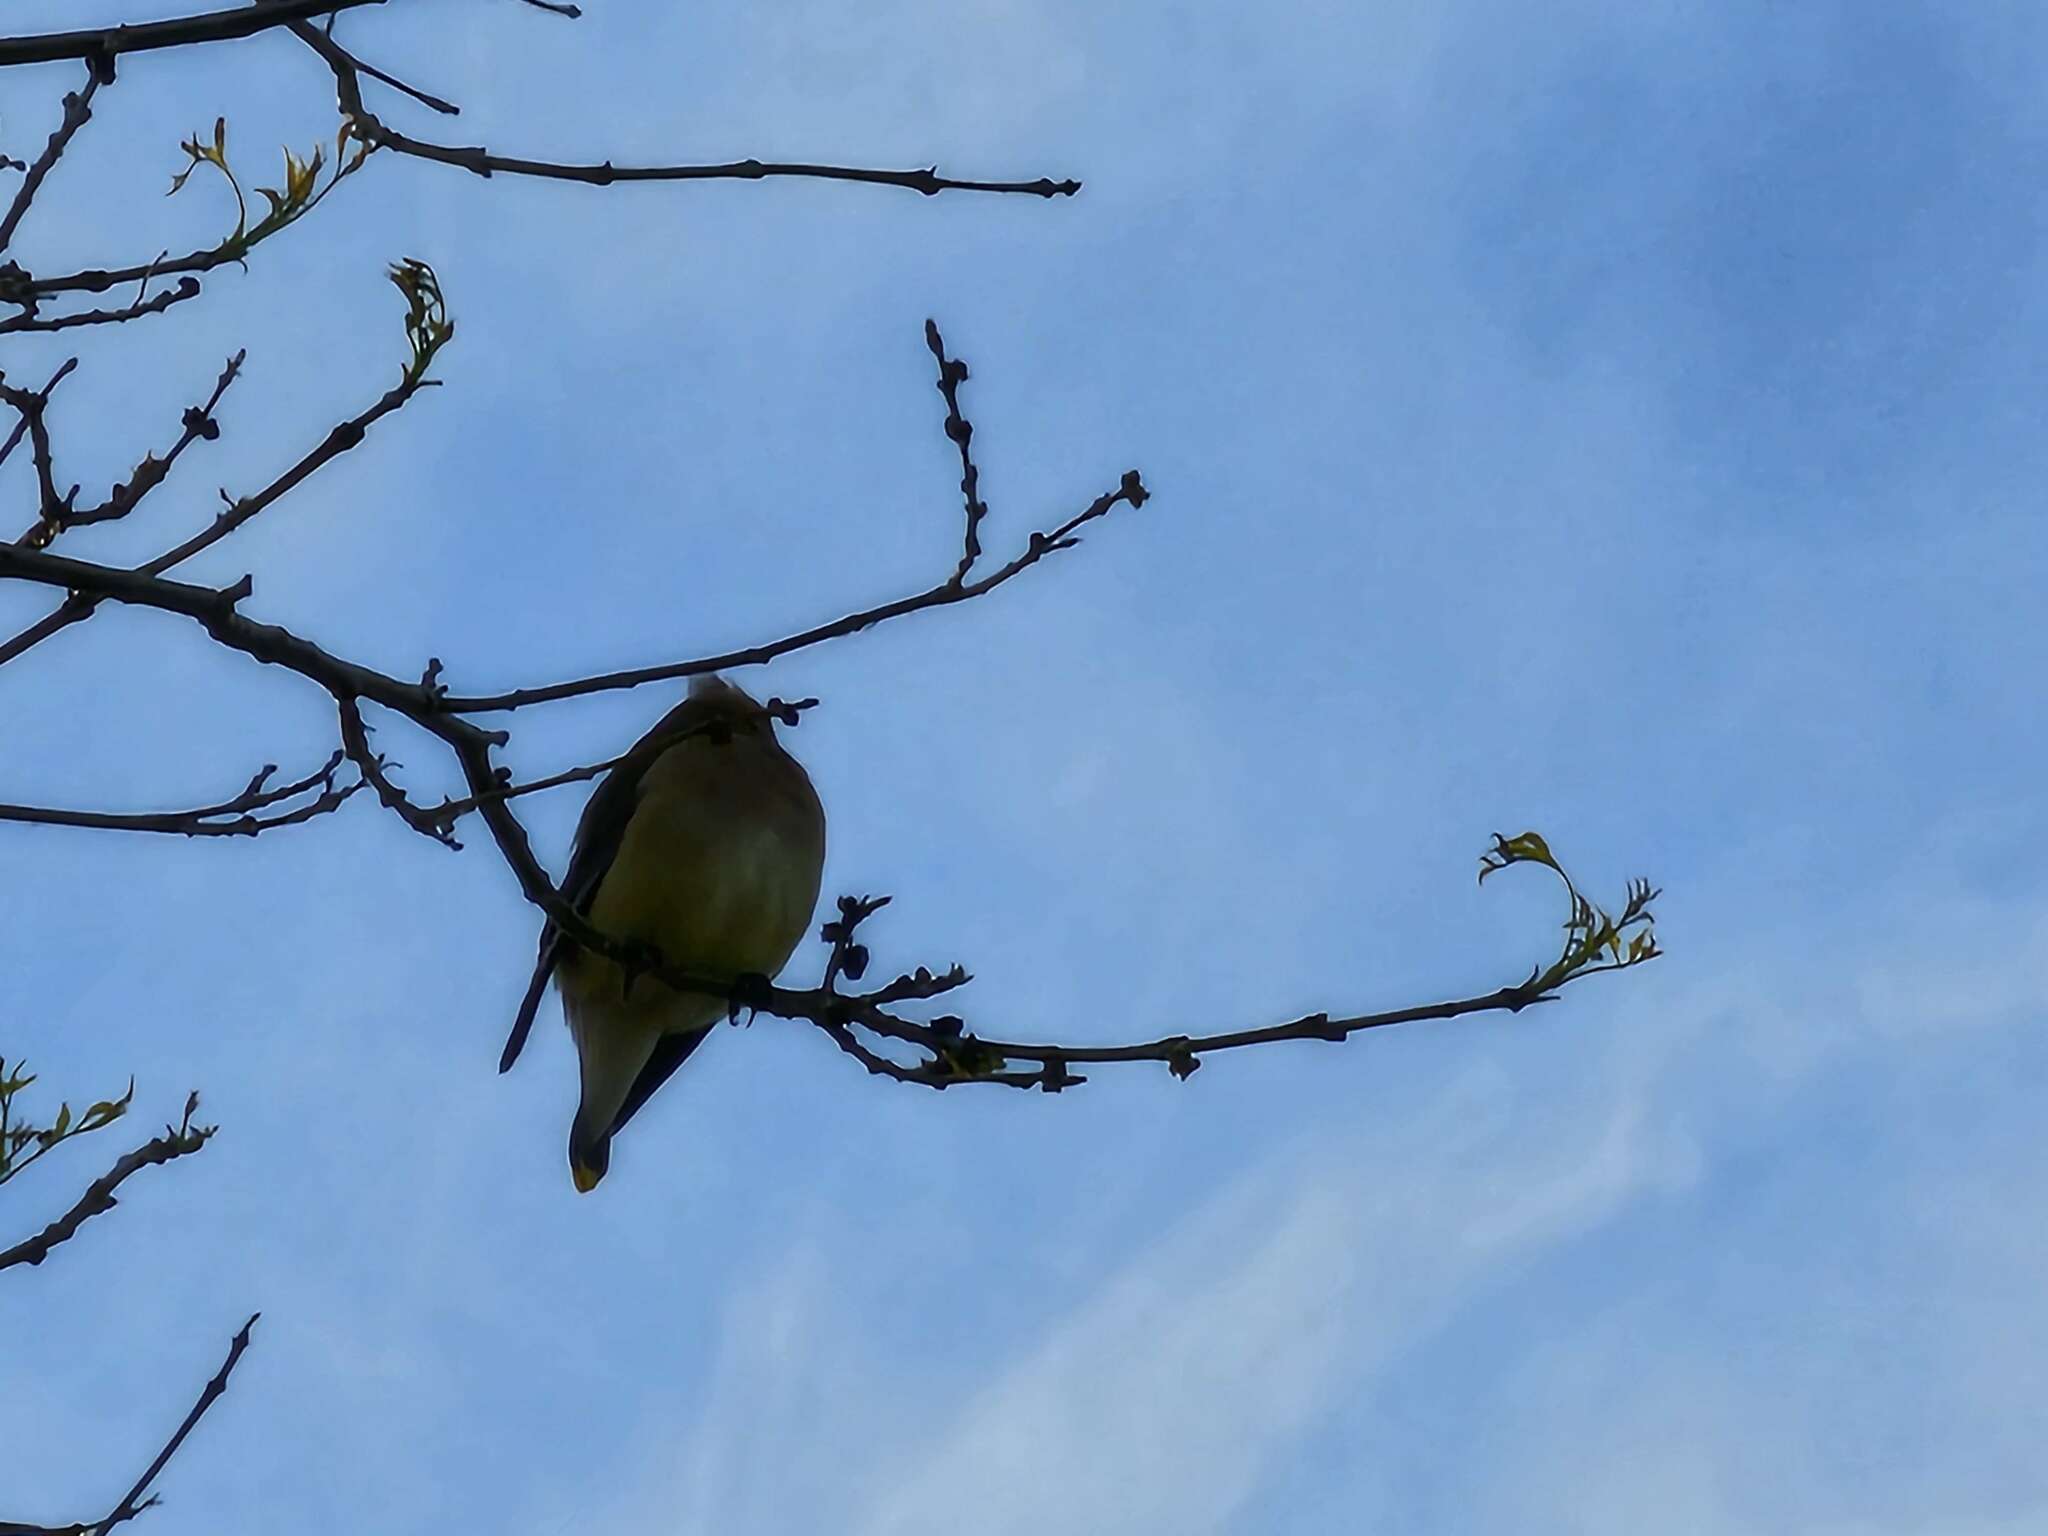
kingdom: Animalia
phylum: Chordata
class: Aves
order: Passeriformes
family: Bombycillidae
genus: Bombycilla
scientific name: Bombycilla cedrorum
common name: Cedar waxwing
